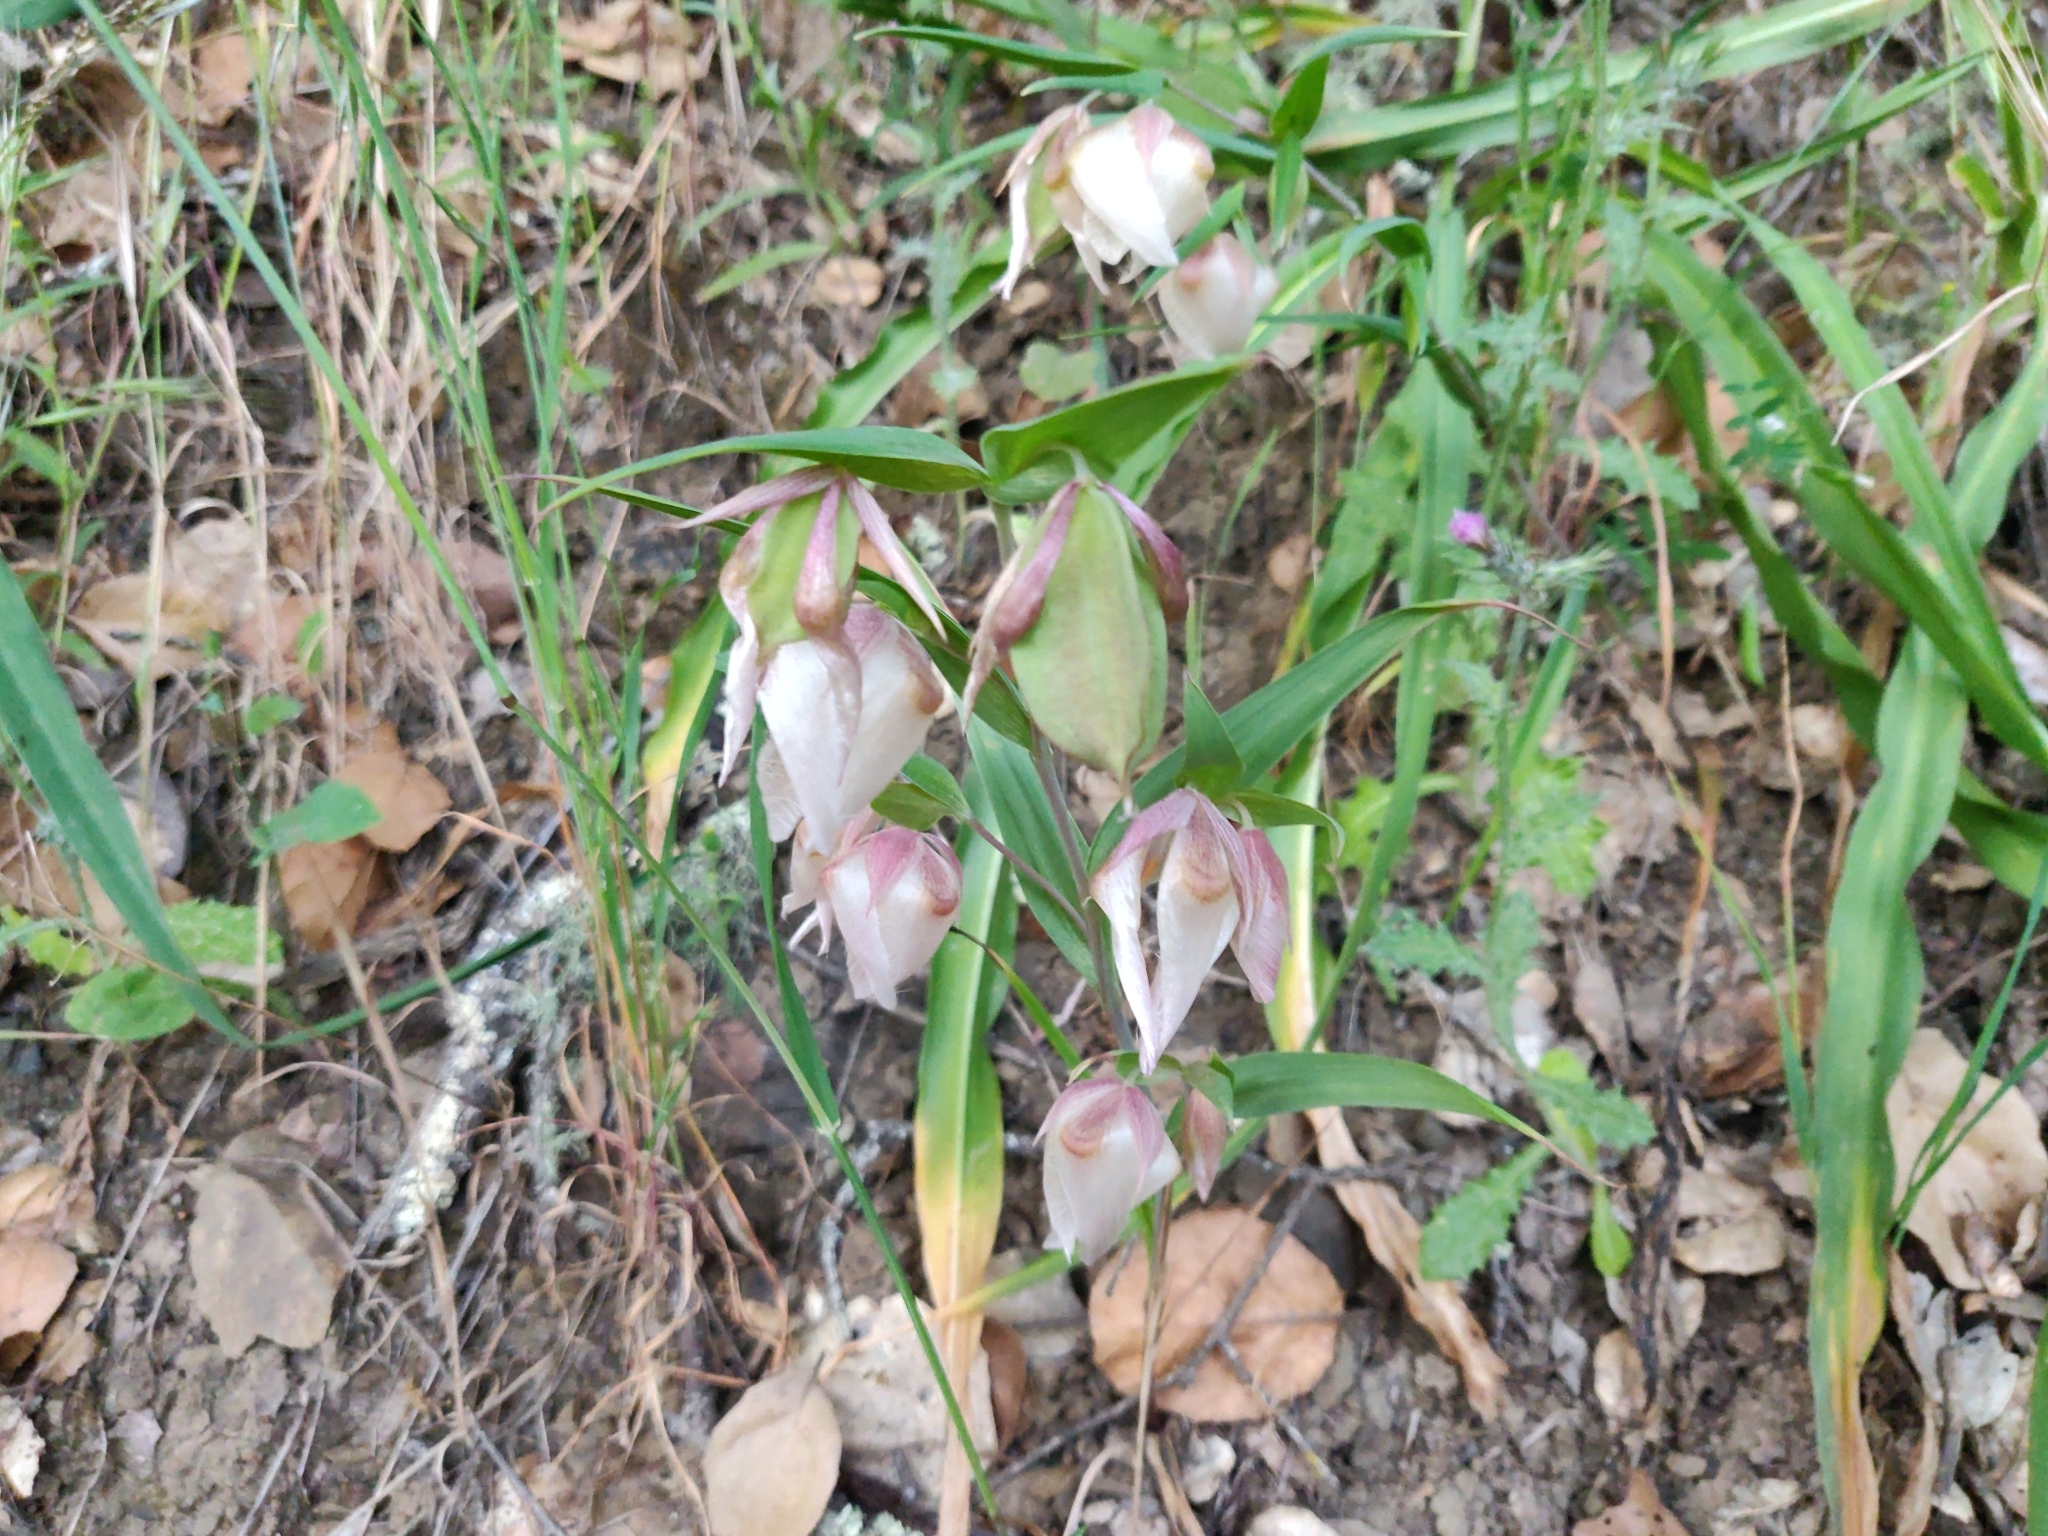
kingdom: Plantae
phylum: Tracheophyta
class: Liliopsida
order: Liliales
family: Liliaceae
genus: Calochortus
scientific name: Calochortus albus
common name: Fairy-lantern
